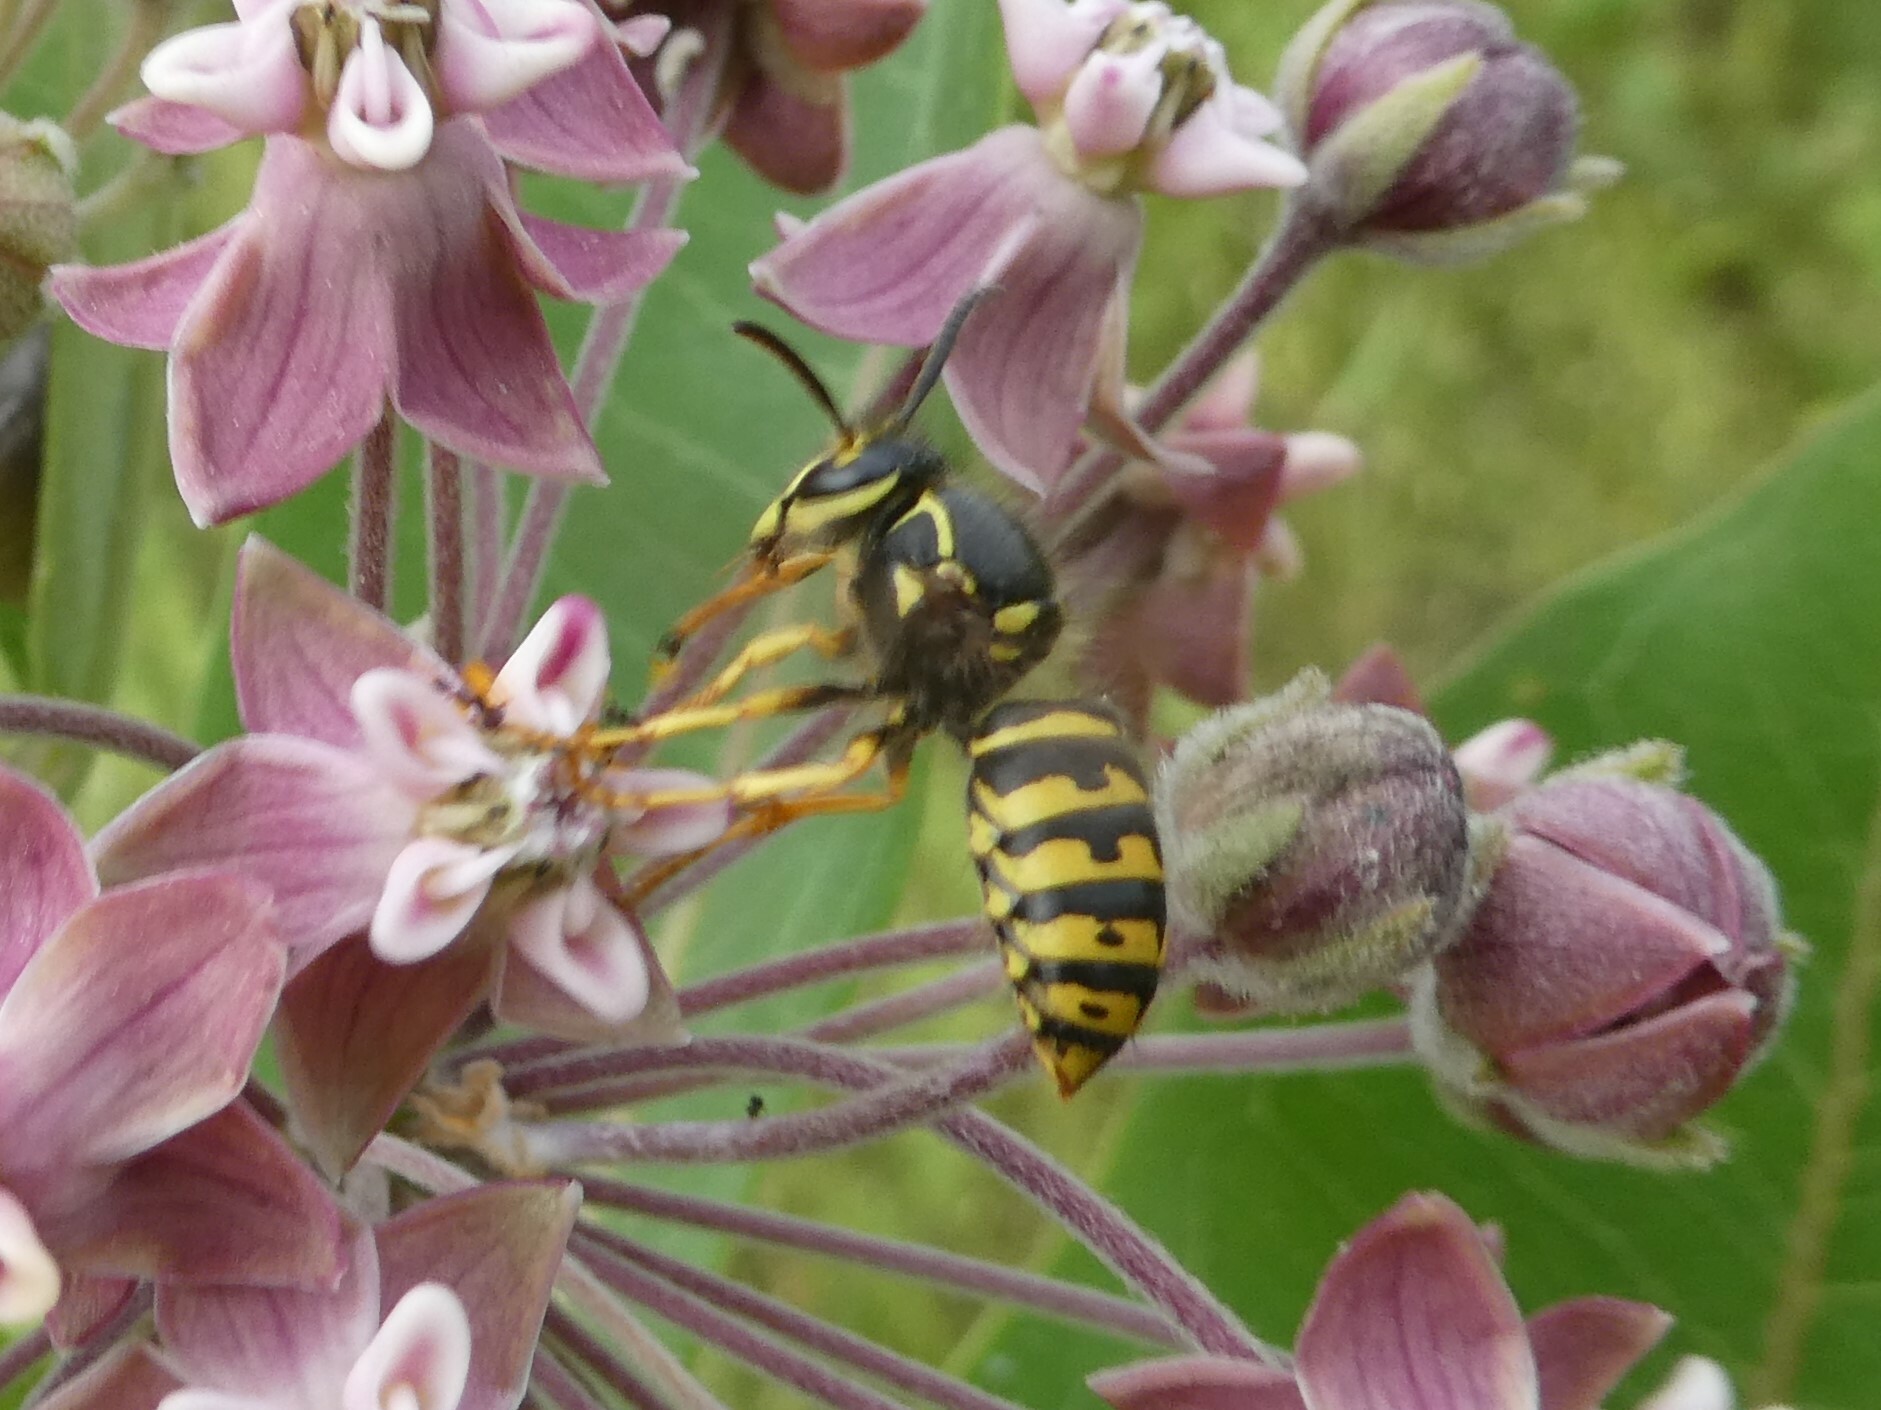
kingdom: Animalia
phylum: Arthropoda
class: Insecta
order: Hymenoptera
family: Vespidae
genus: Dolichovespula
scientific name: Dolichovespula arenaria
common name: Aerial yellowjacket
